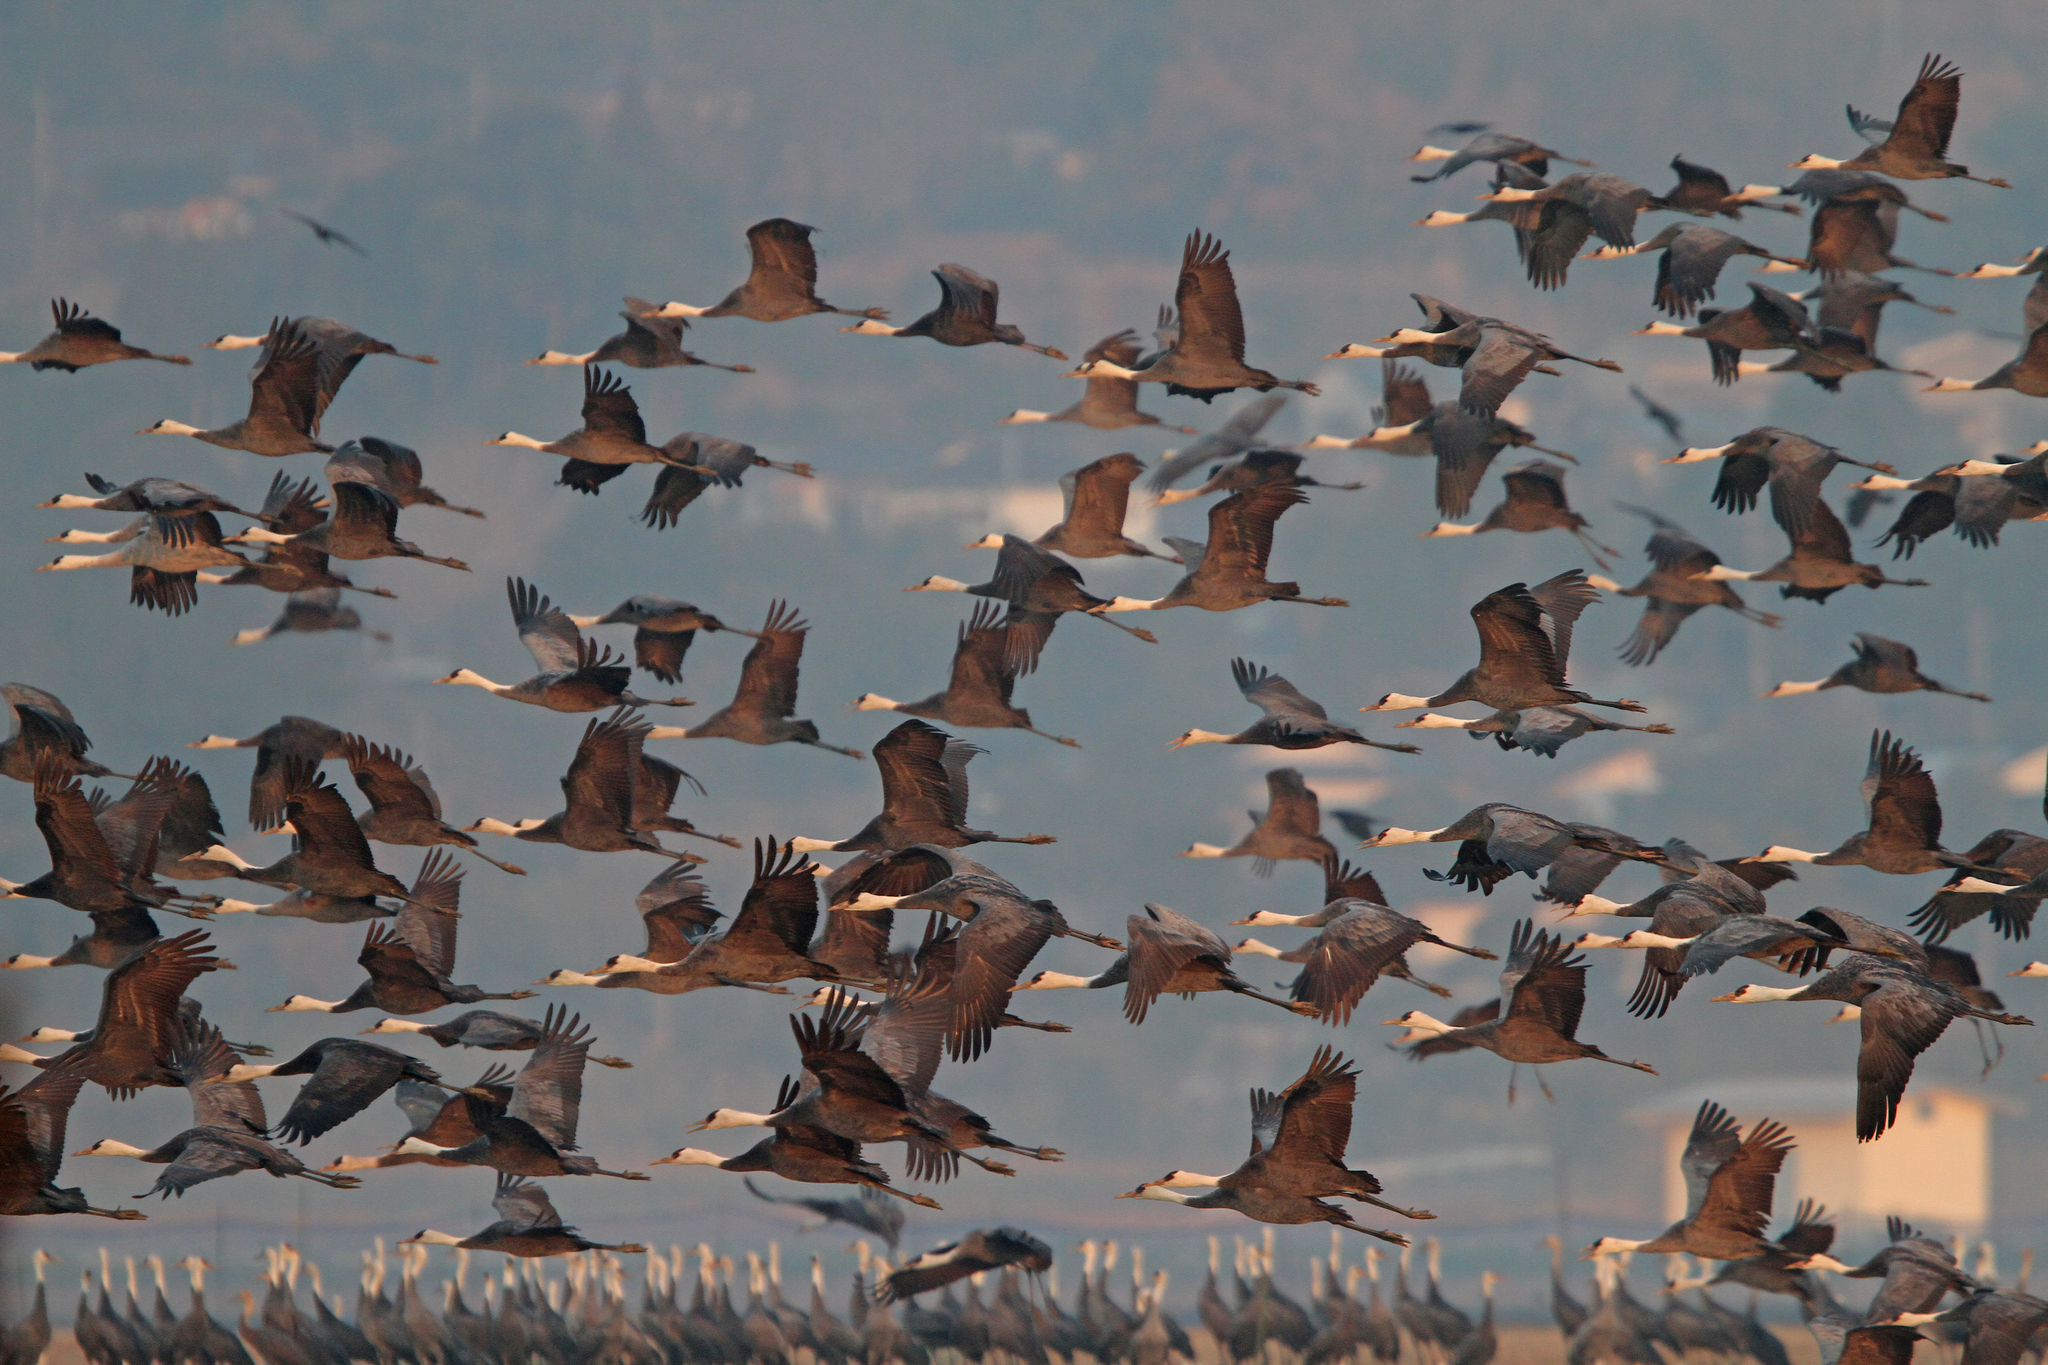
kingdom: Animalia
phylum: Chordata
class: Aves
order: Gruiformes
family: Gruidae
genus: Grus
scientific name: Grus monacha
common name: Hooded crane
